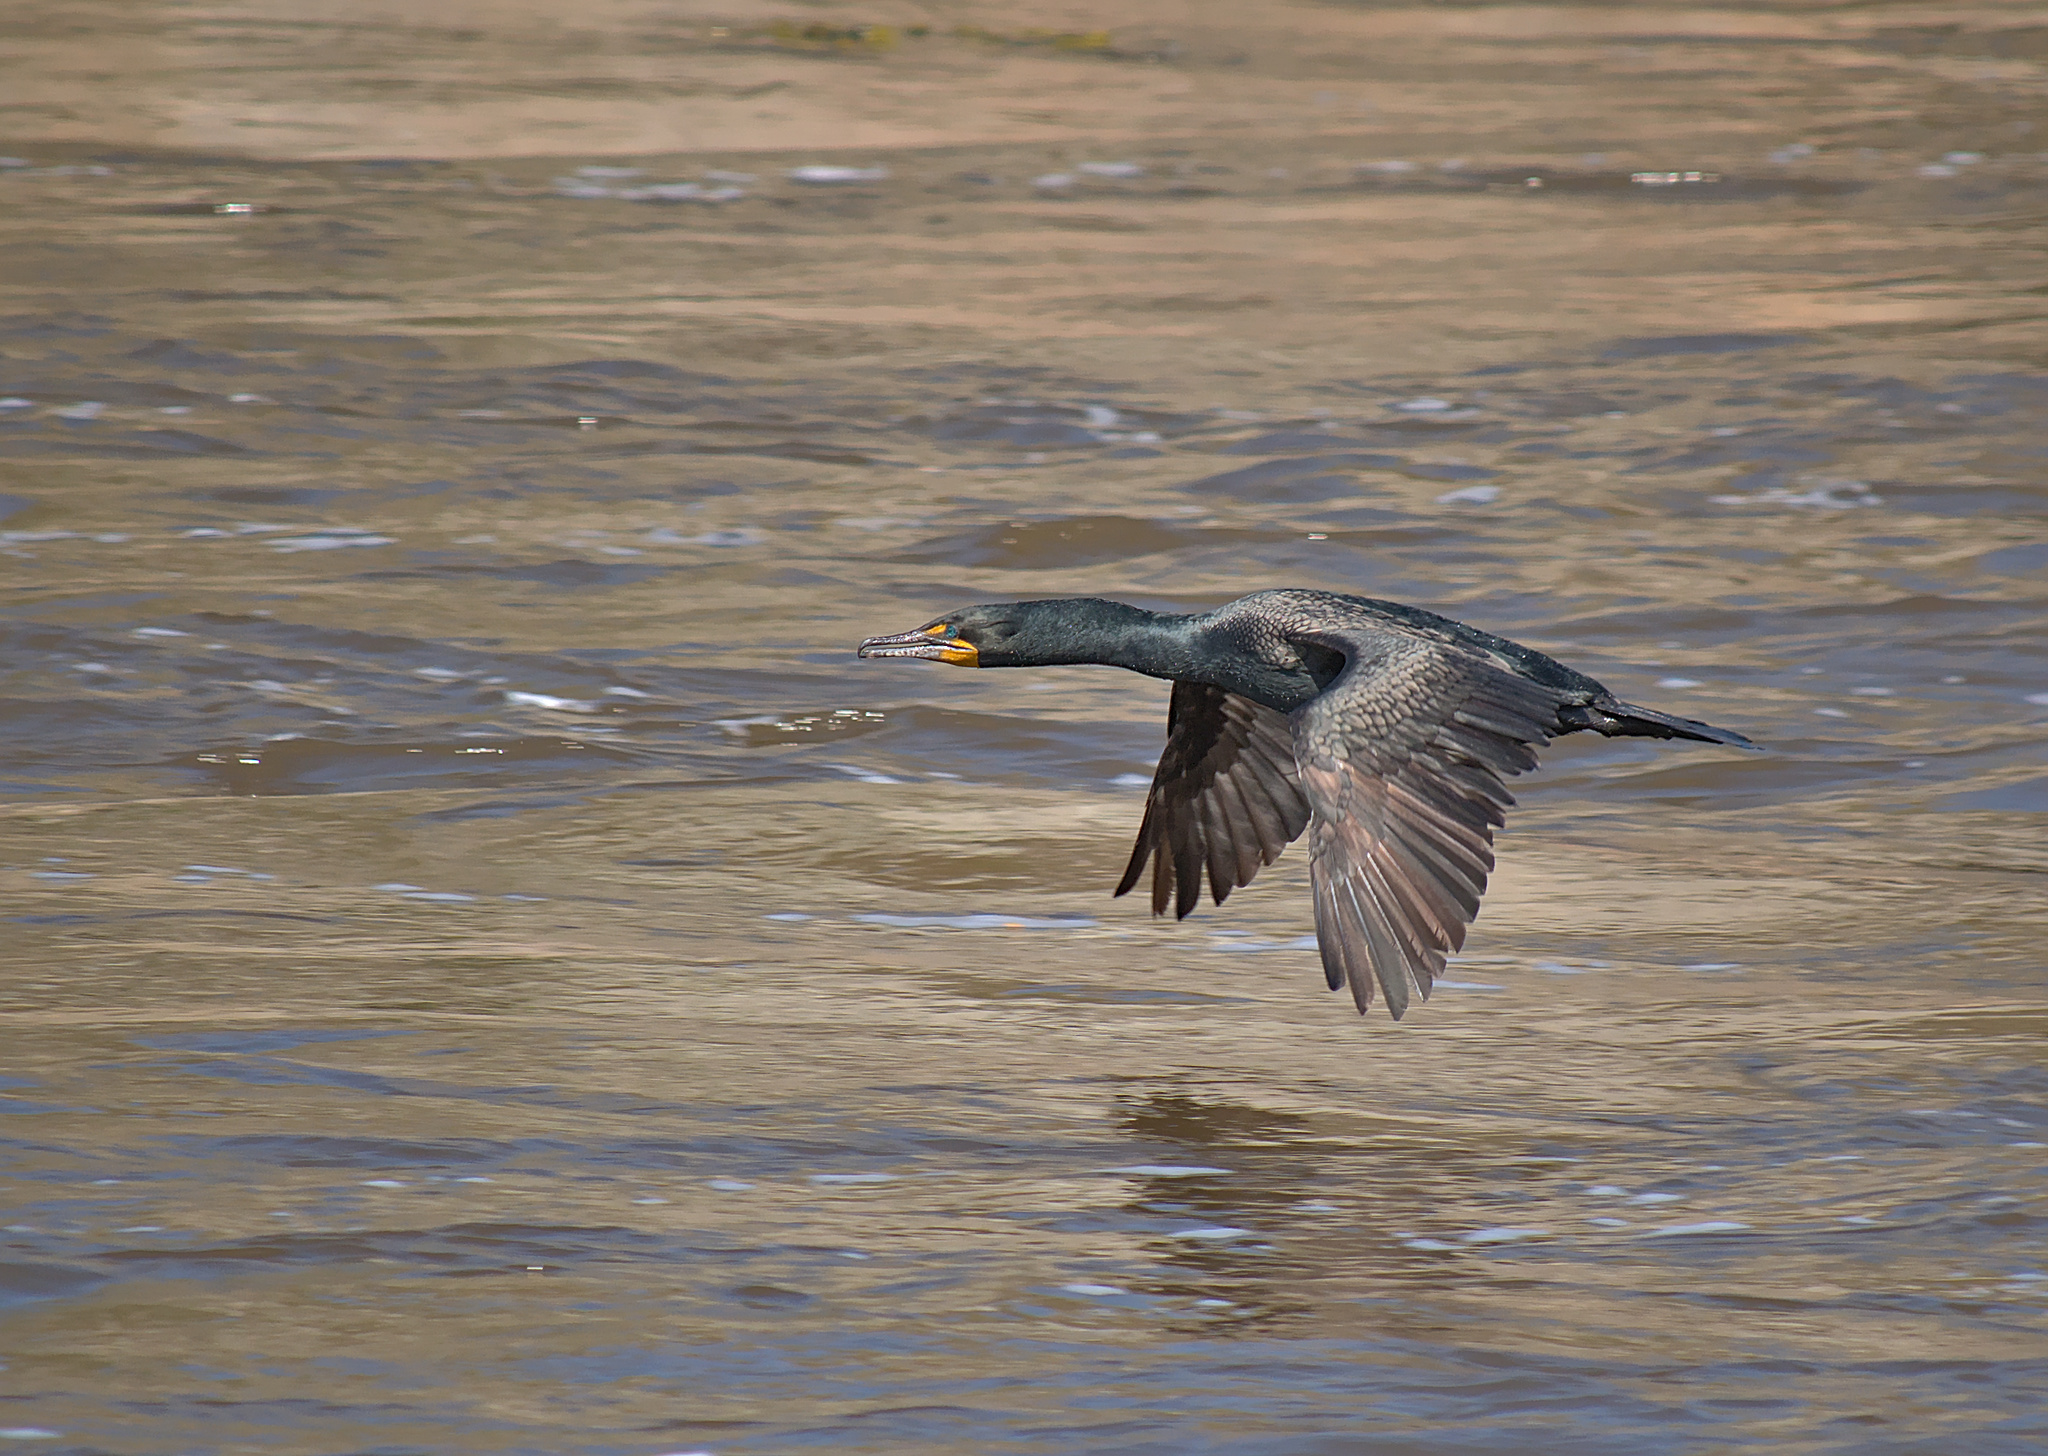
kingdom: Animalia
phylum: Chordata
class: Aves
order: Suliformes
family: Phalacrocoracidae
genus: Phalacrocorax
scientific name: Phalacrocorax auritus
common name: Double-crested cormorant
